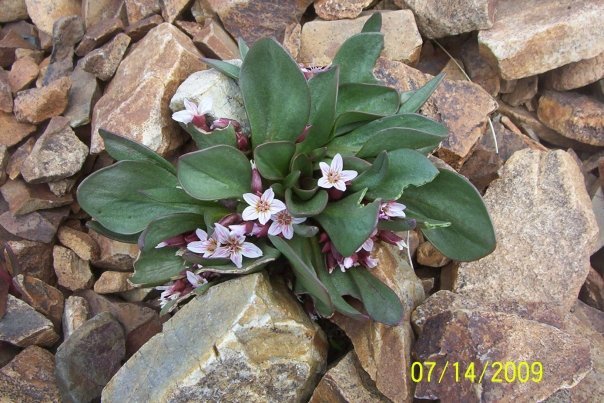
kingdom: Plantae
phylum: Tracheophyta
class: Magnoliopsida
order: Caryophyllales
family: Montiaceae
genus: Claytonia
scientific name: Claytonia megarhiza
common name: Alpine spring beauty
